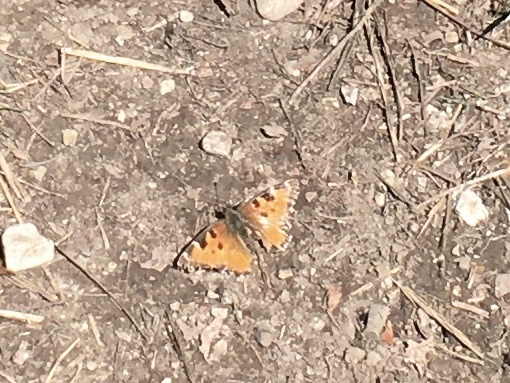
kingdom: Animalia
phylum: Arthropoda
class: Insecta
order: Lepidoptera
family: Nymphalidae
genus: Nymphalis
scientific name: Nymphalis californica
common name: California tortoiseshell
